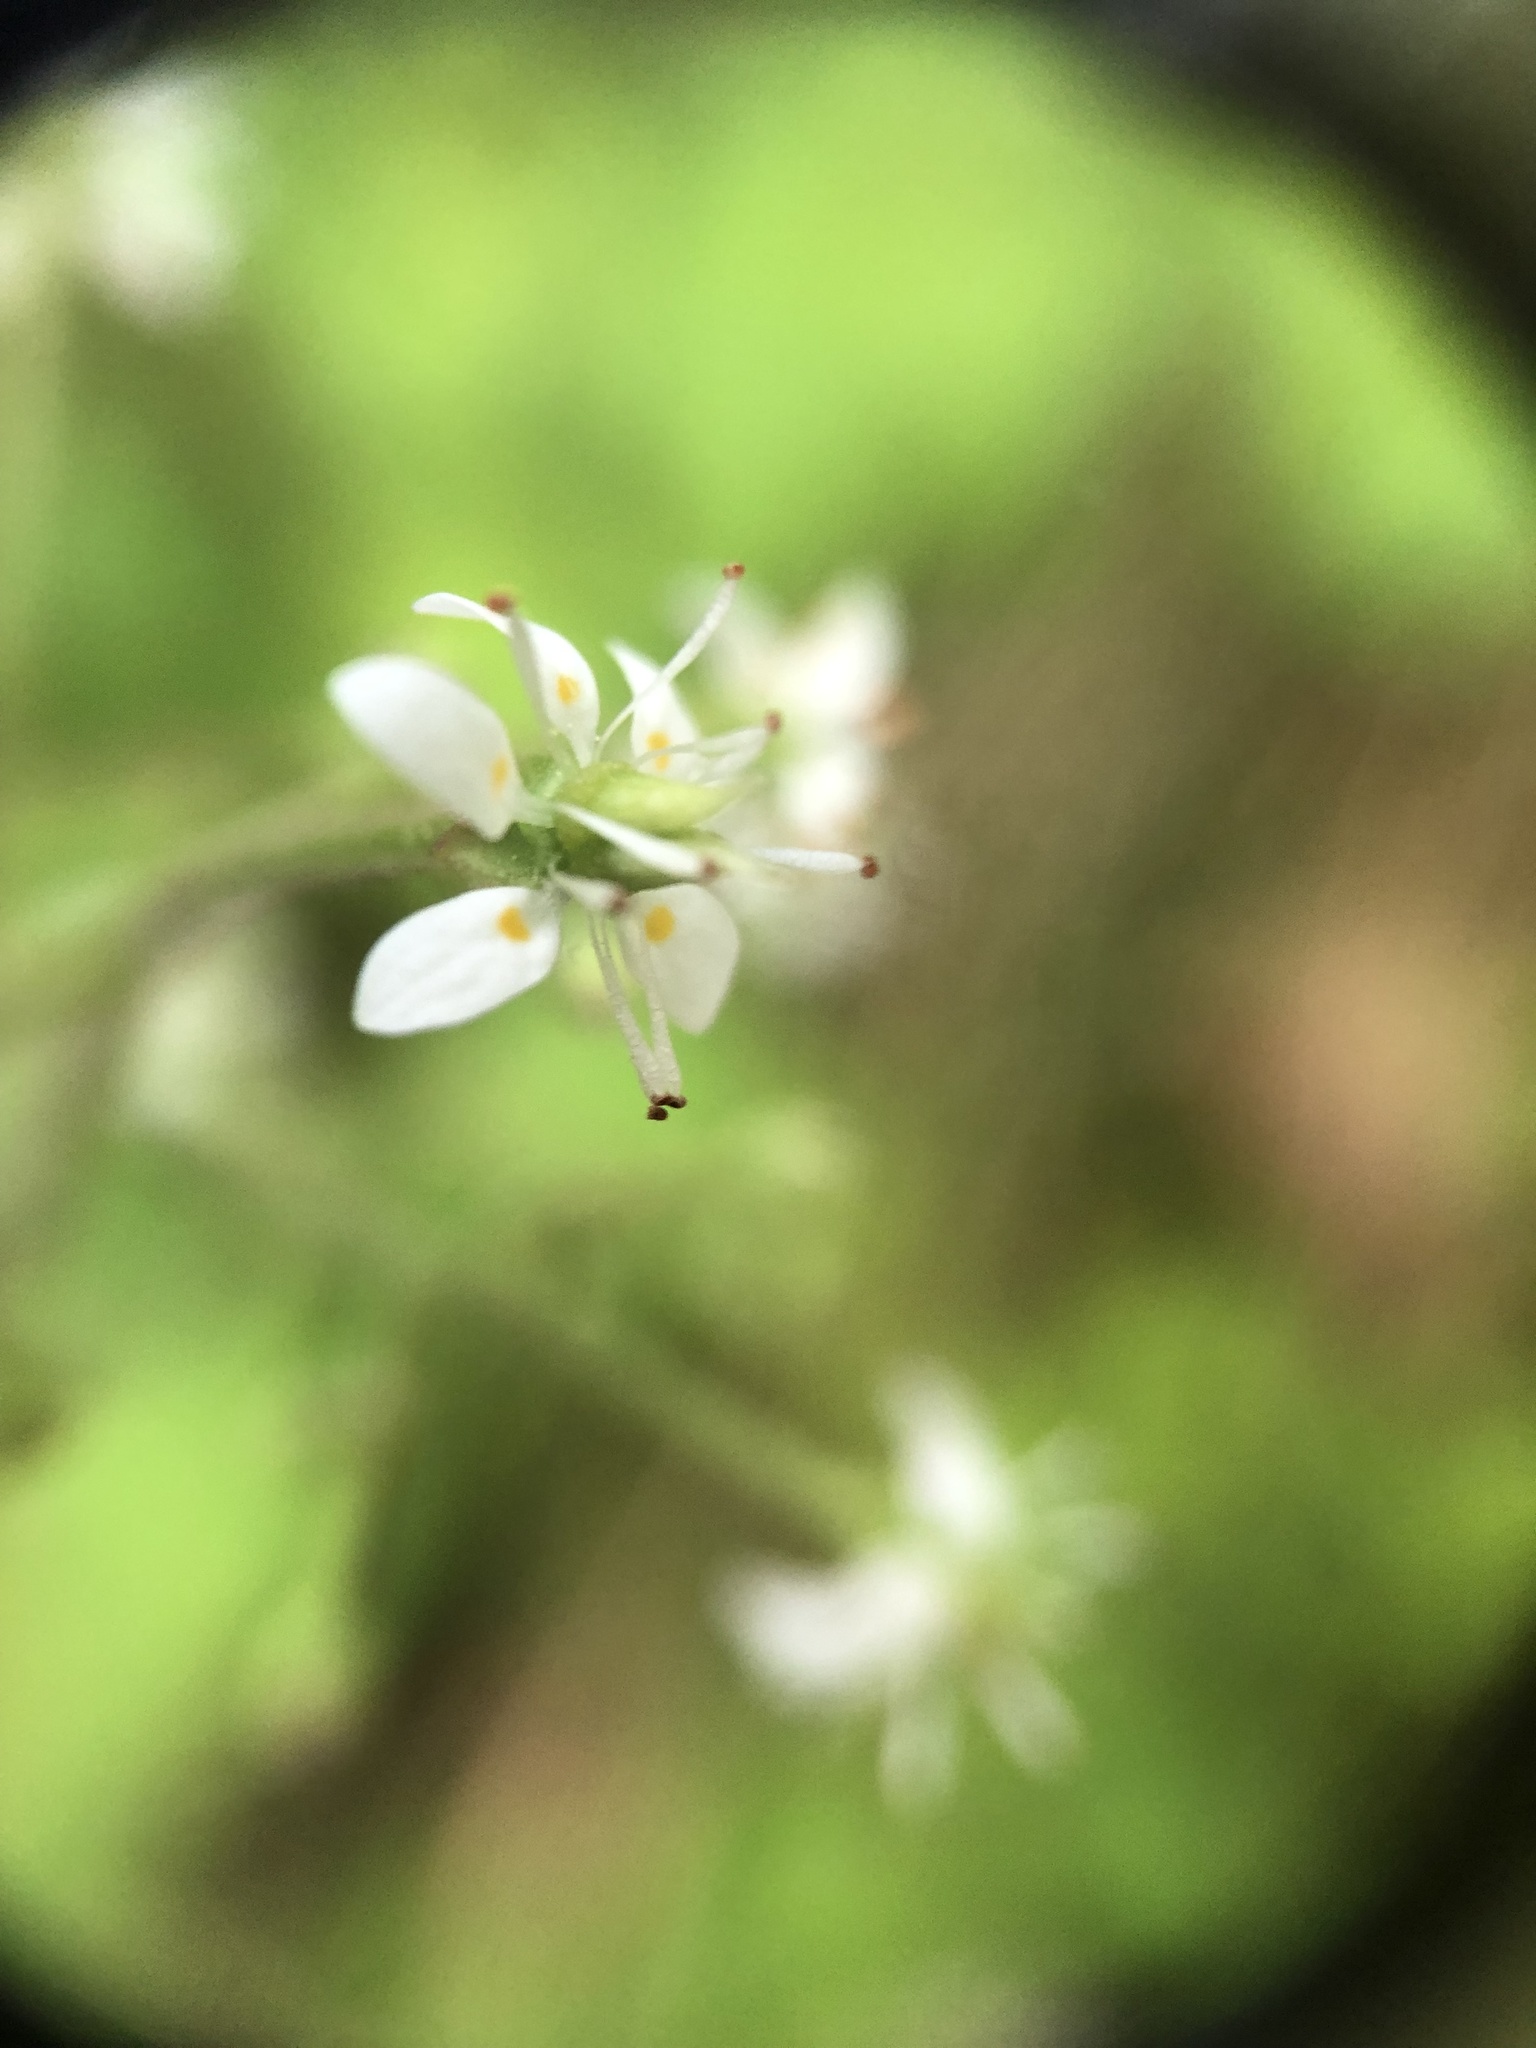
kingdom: Plantae
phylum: Tracheophyta
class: Magnoliopsida
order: Saxifragales
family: Saxifragaceae
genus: Micranthes
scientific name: Micranthes micranthidifolia
